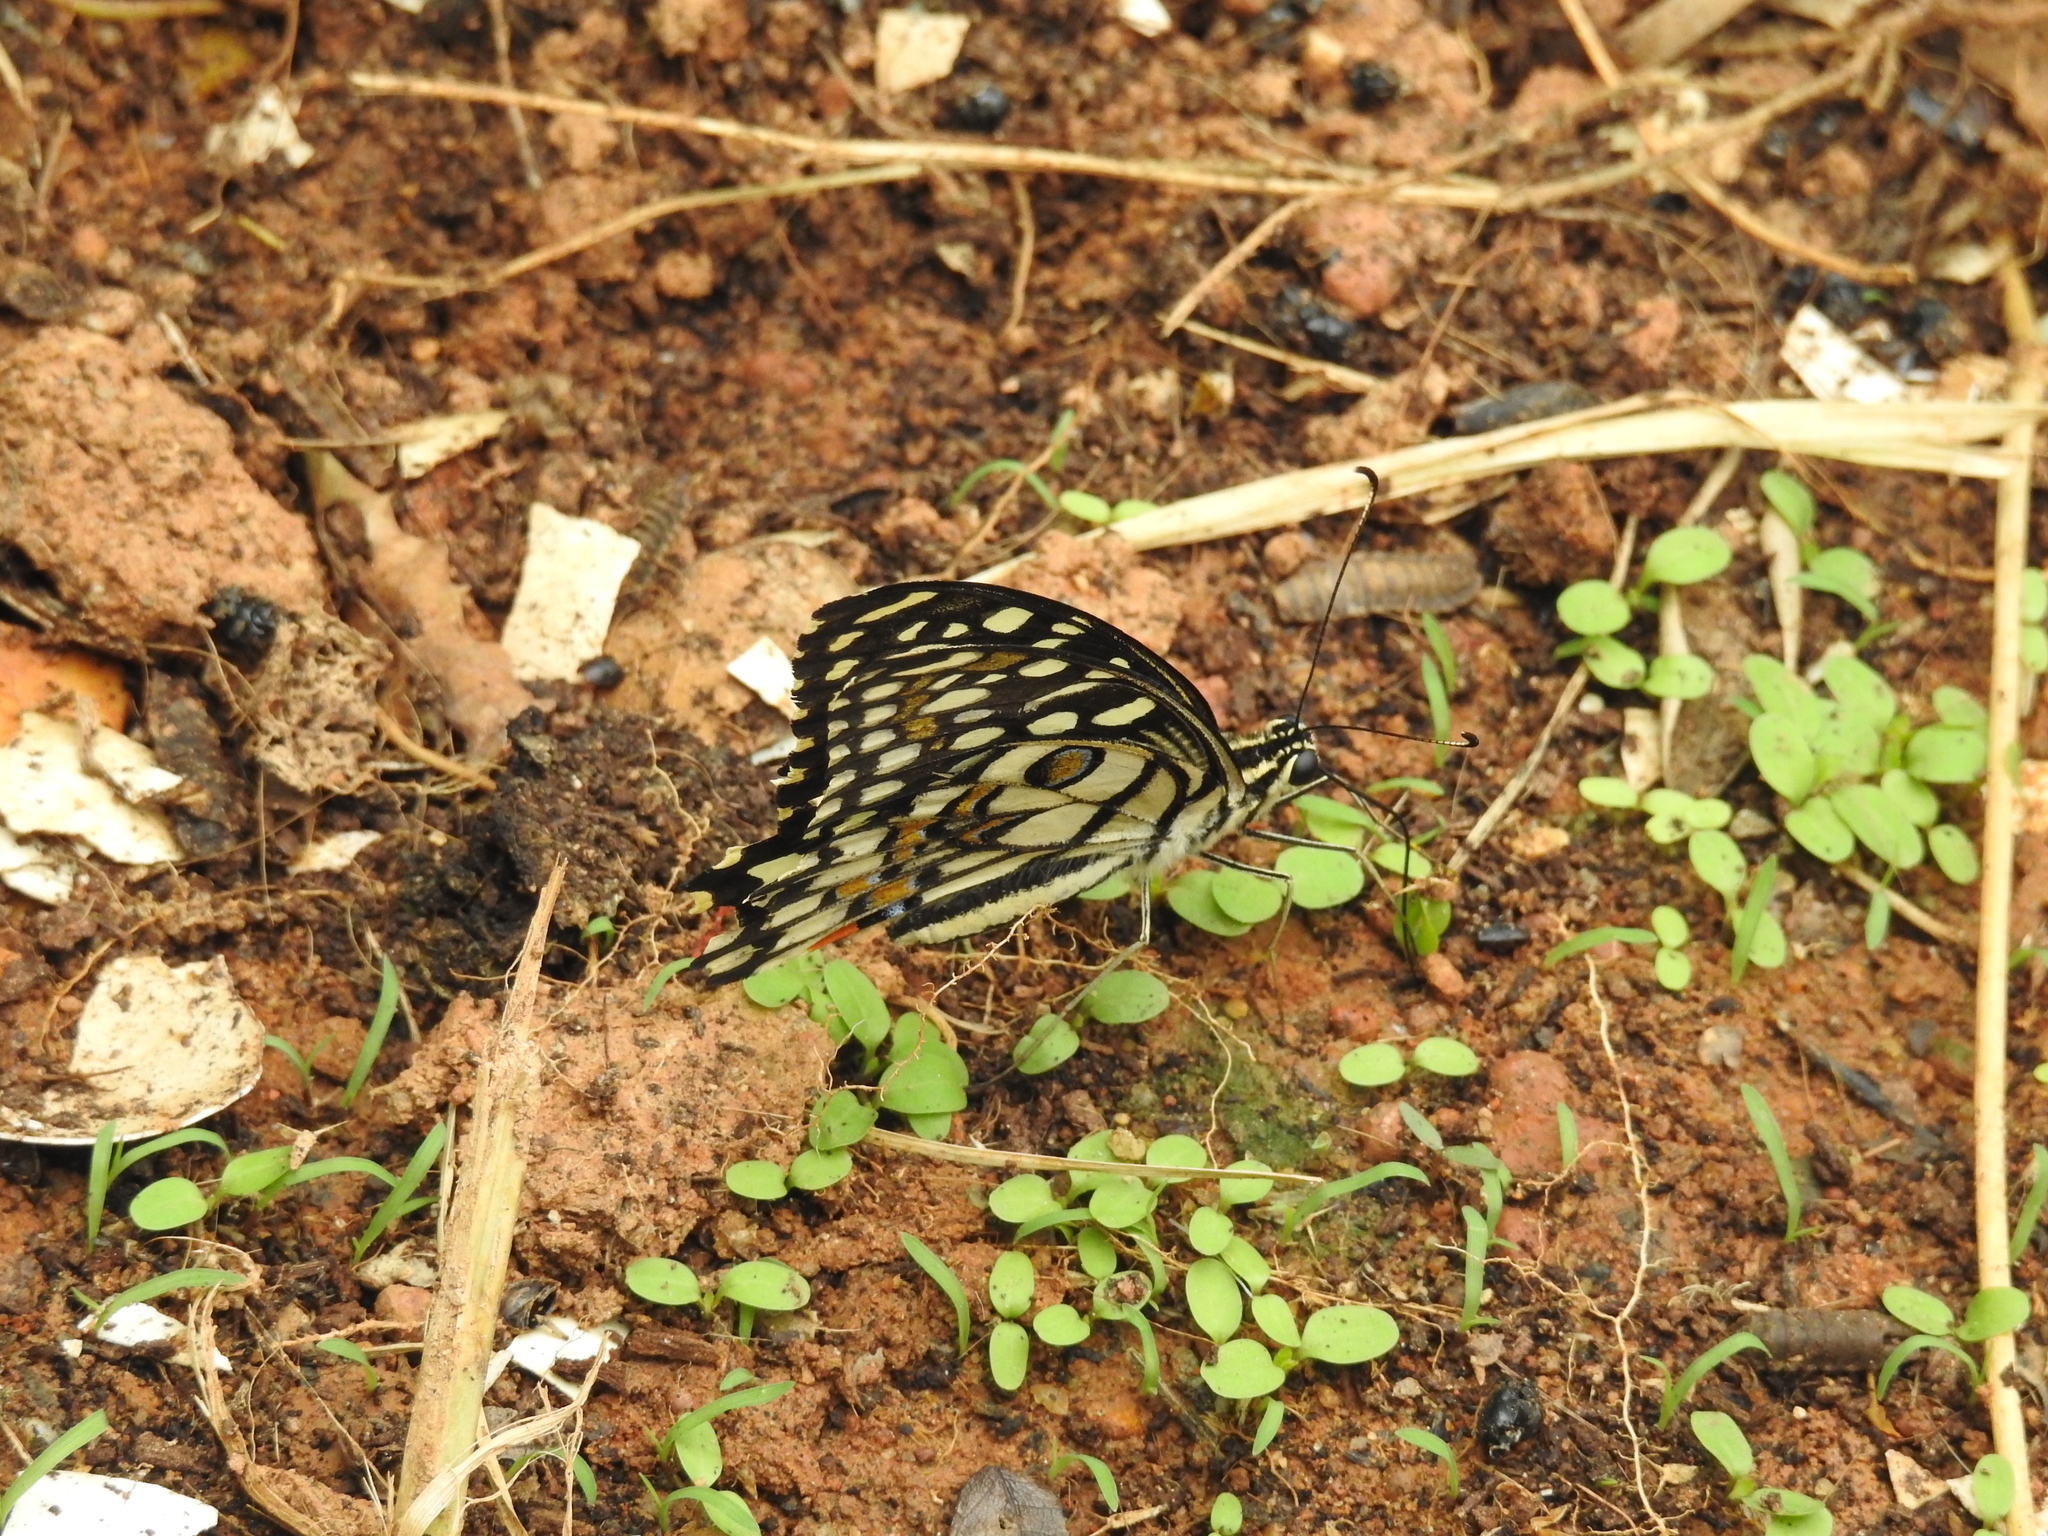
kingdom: Animalia
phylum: Arthropoda
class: Insecta
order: Lepidoptera
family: Papilionidae
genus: Papilio
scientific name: Papilio demoleus
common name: Lime butterfly
